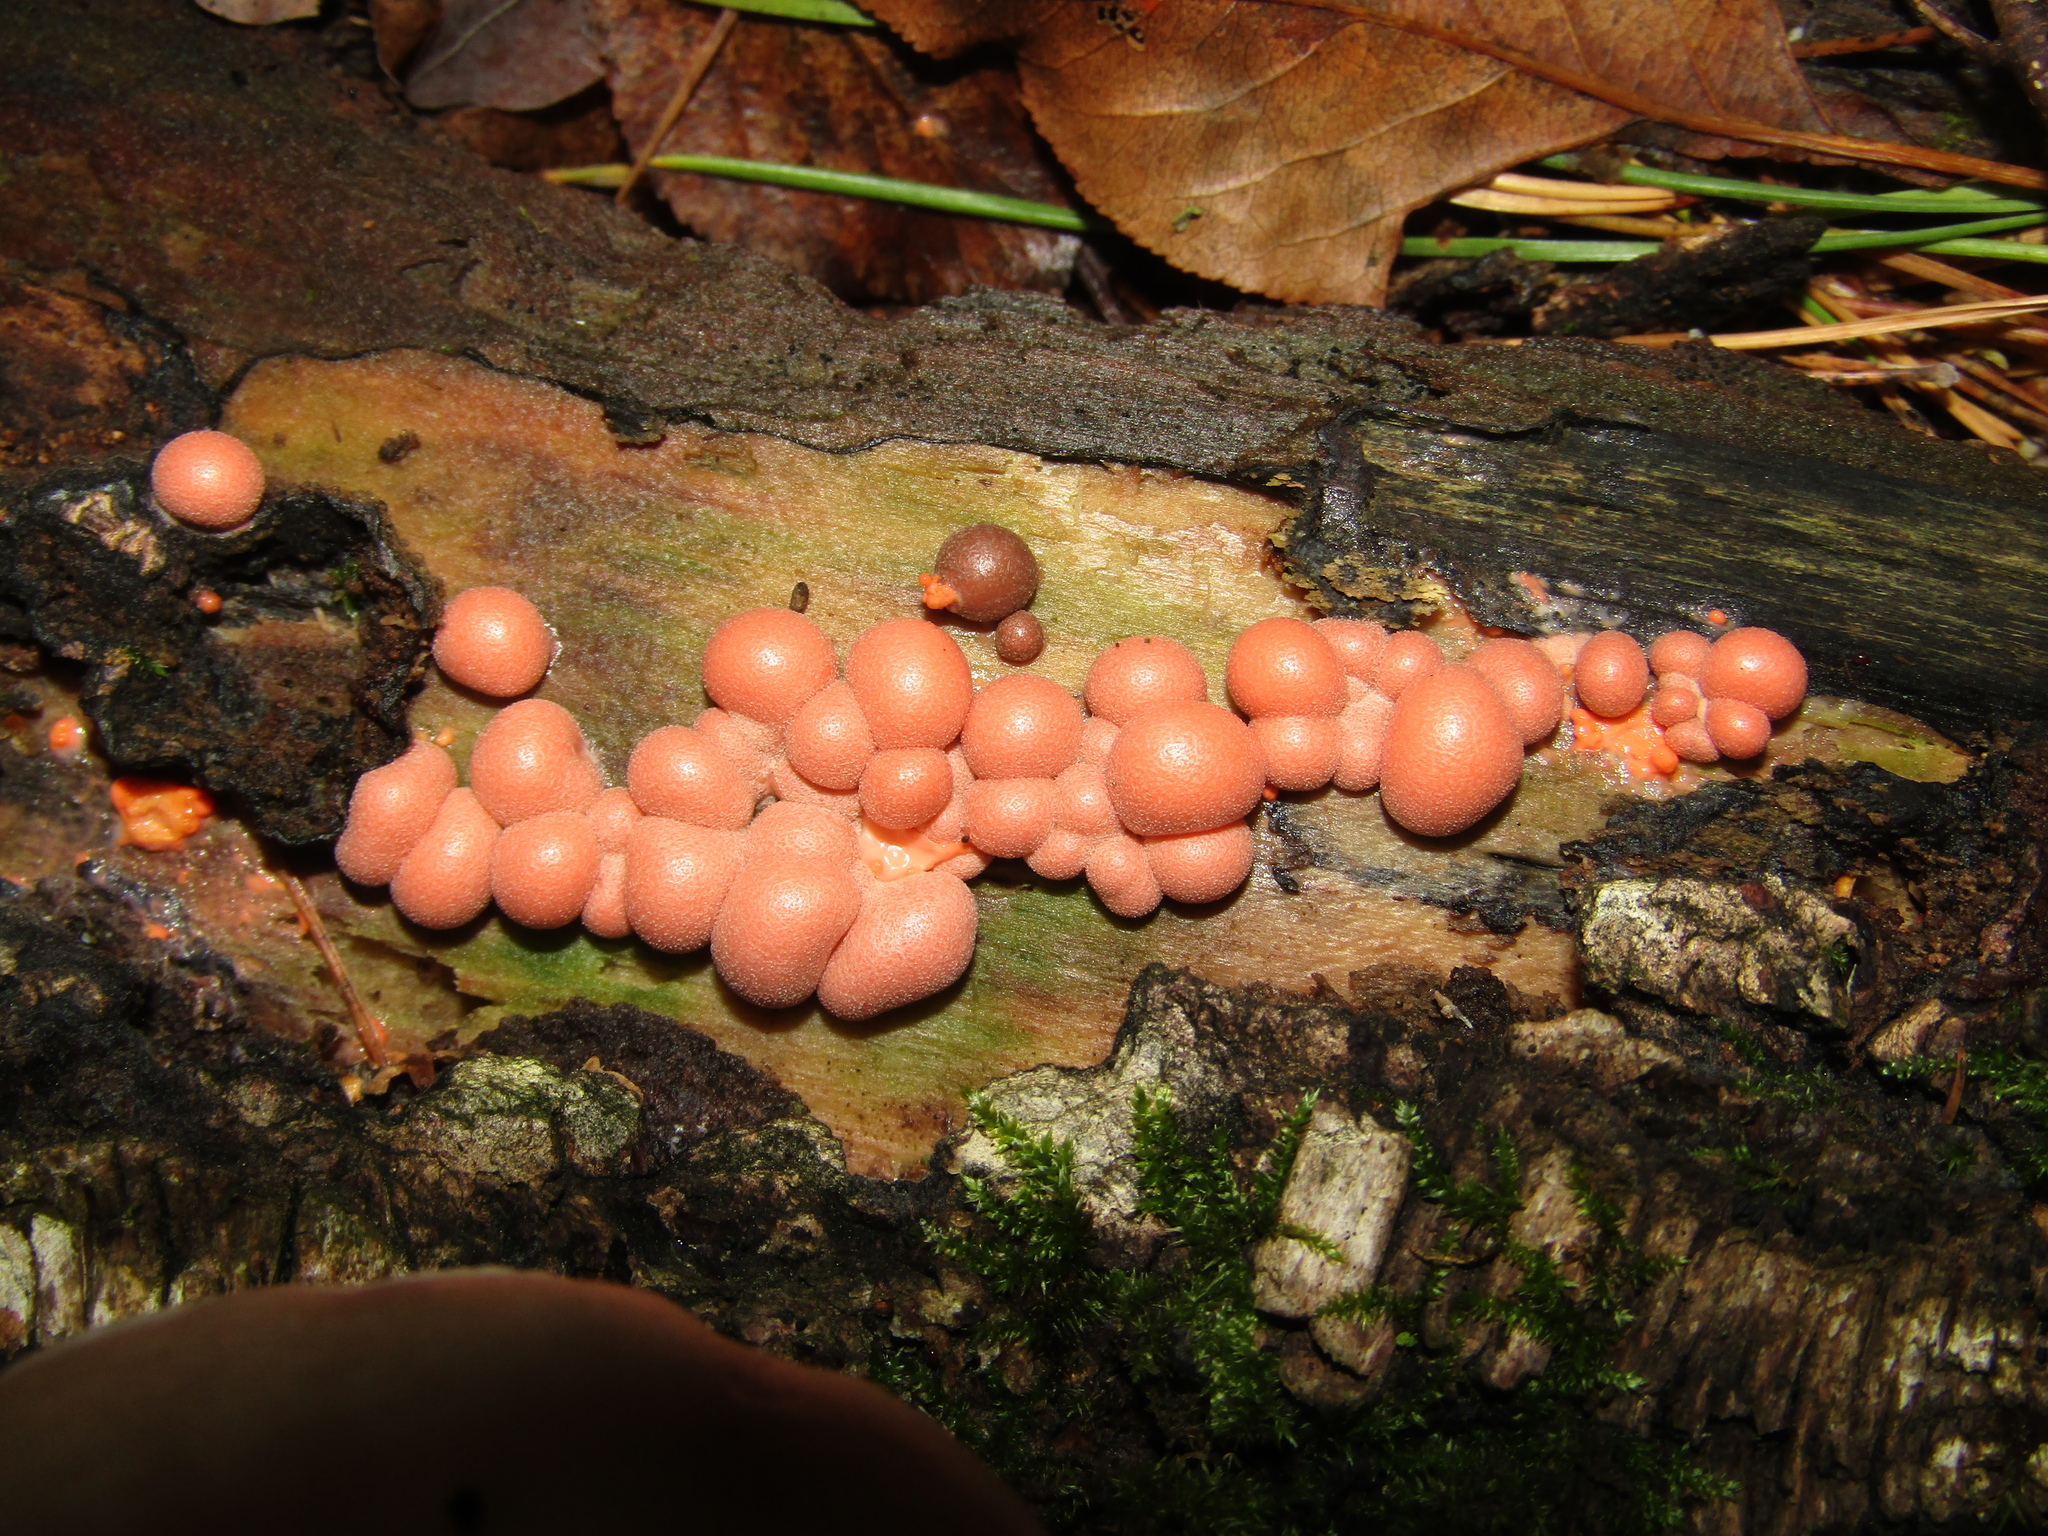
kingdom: Protozoa
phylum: Mycetozoa
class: Myxomycetes
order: Cribrariales
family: Tubiferaceae
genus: Lycogala
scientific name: Lycogala epidendrum
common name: Wolf's milk
